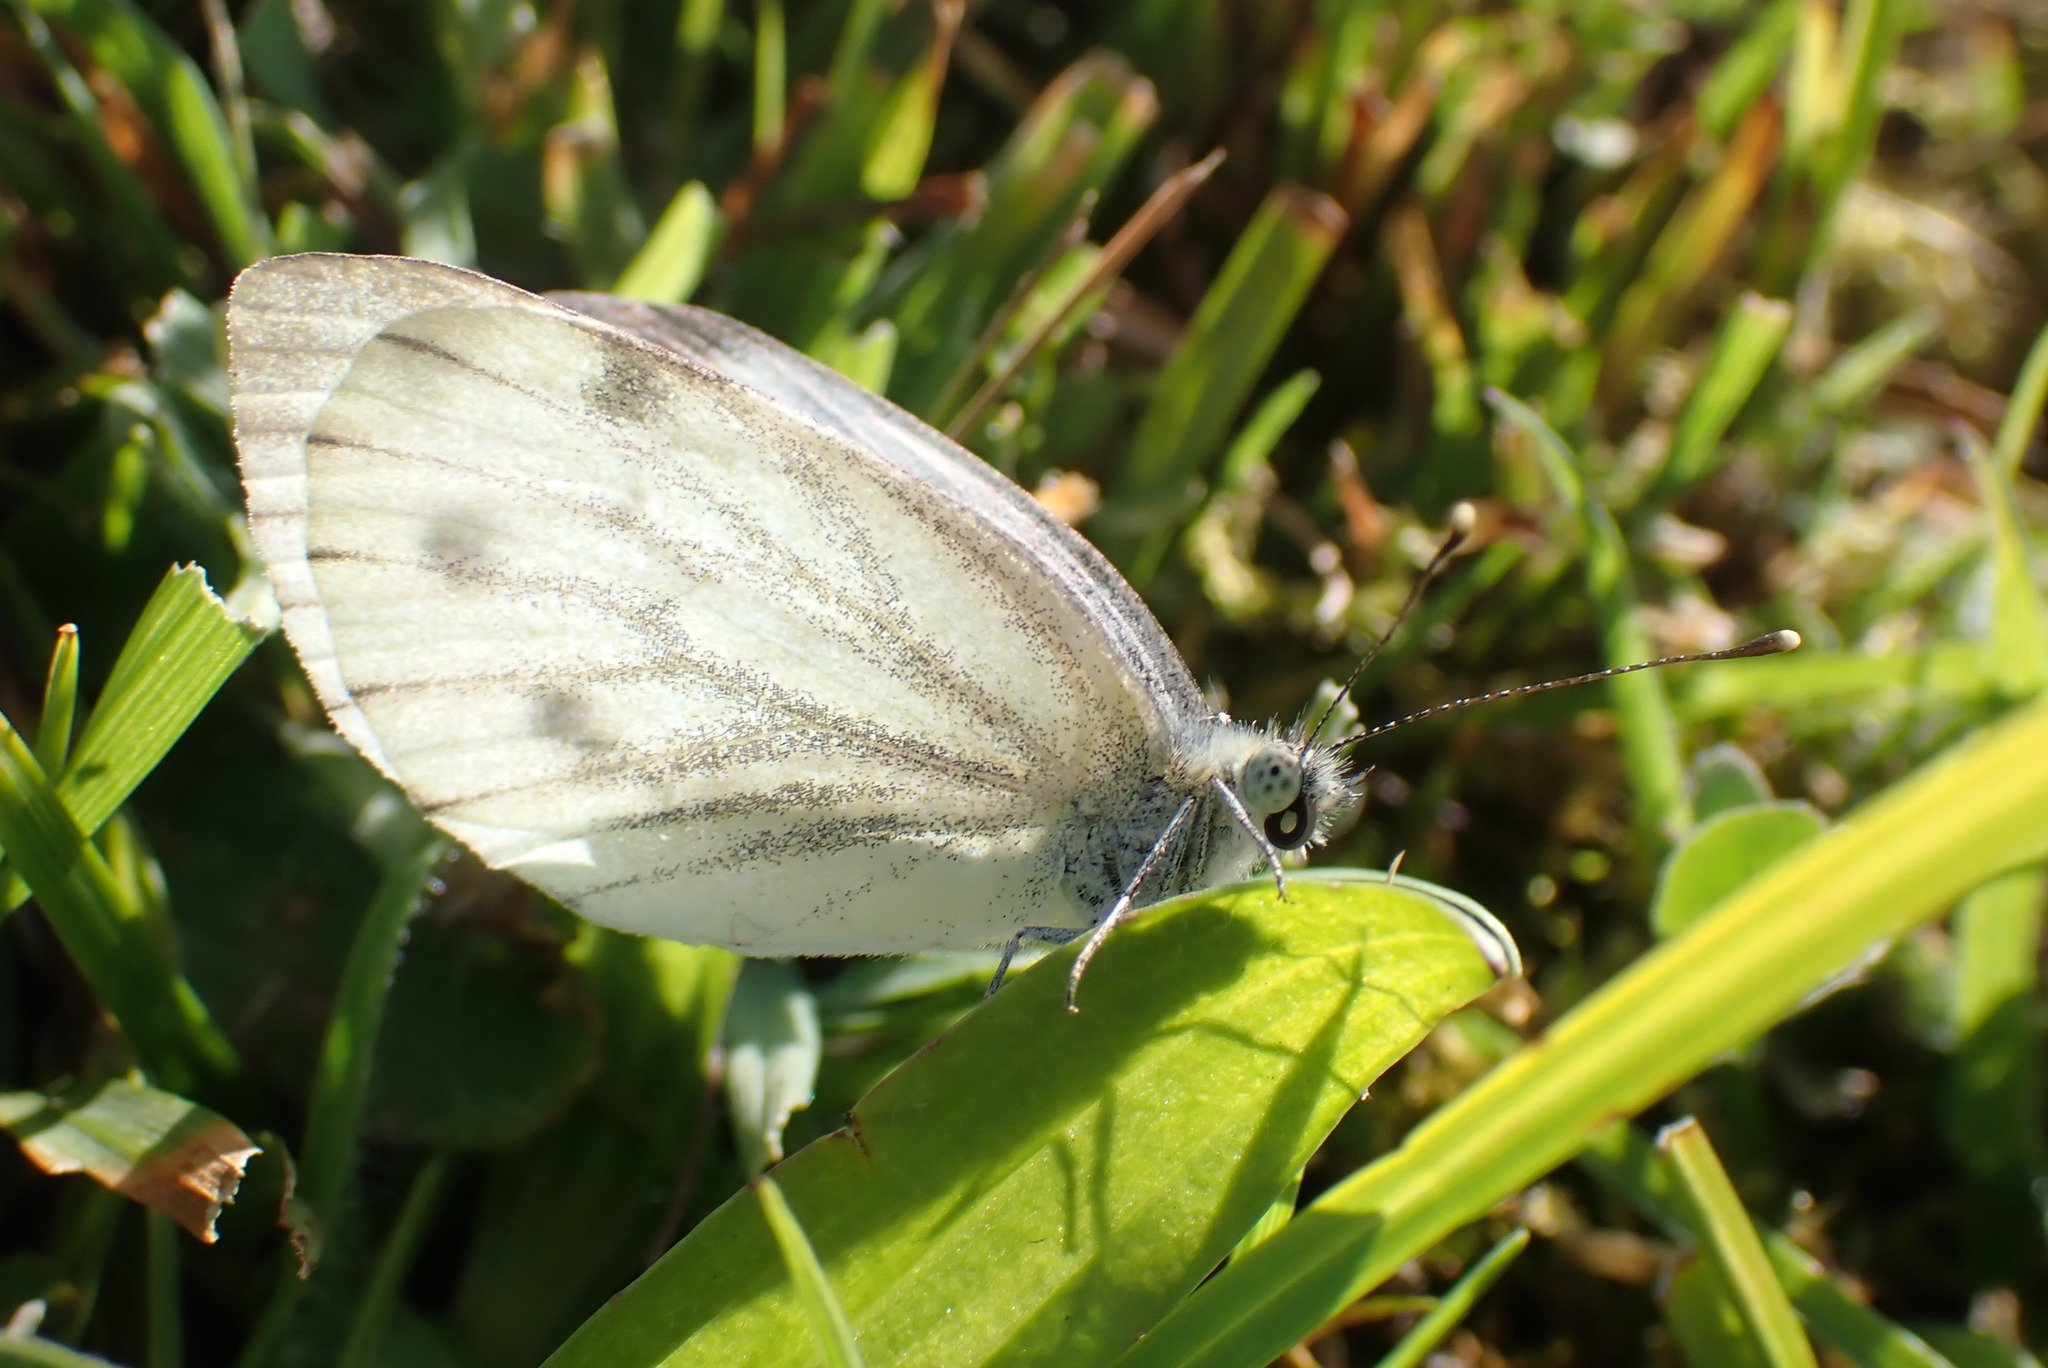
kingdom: Animalia
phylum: Arthropoda
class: Insecta
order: Lepidoptera
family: Pieridae
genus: Pieris
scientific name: Pieris napi
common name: Green-veined white
